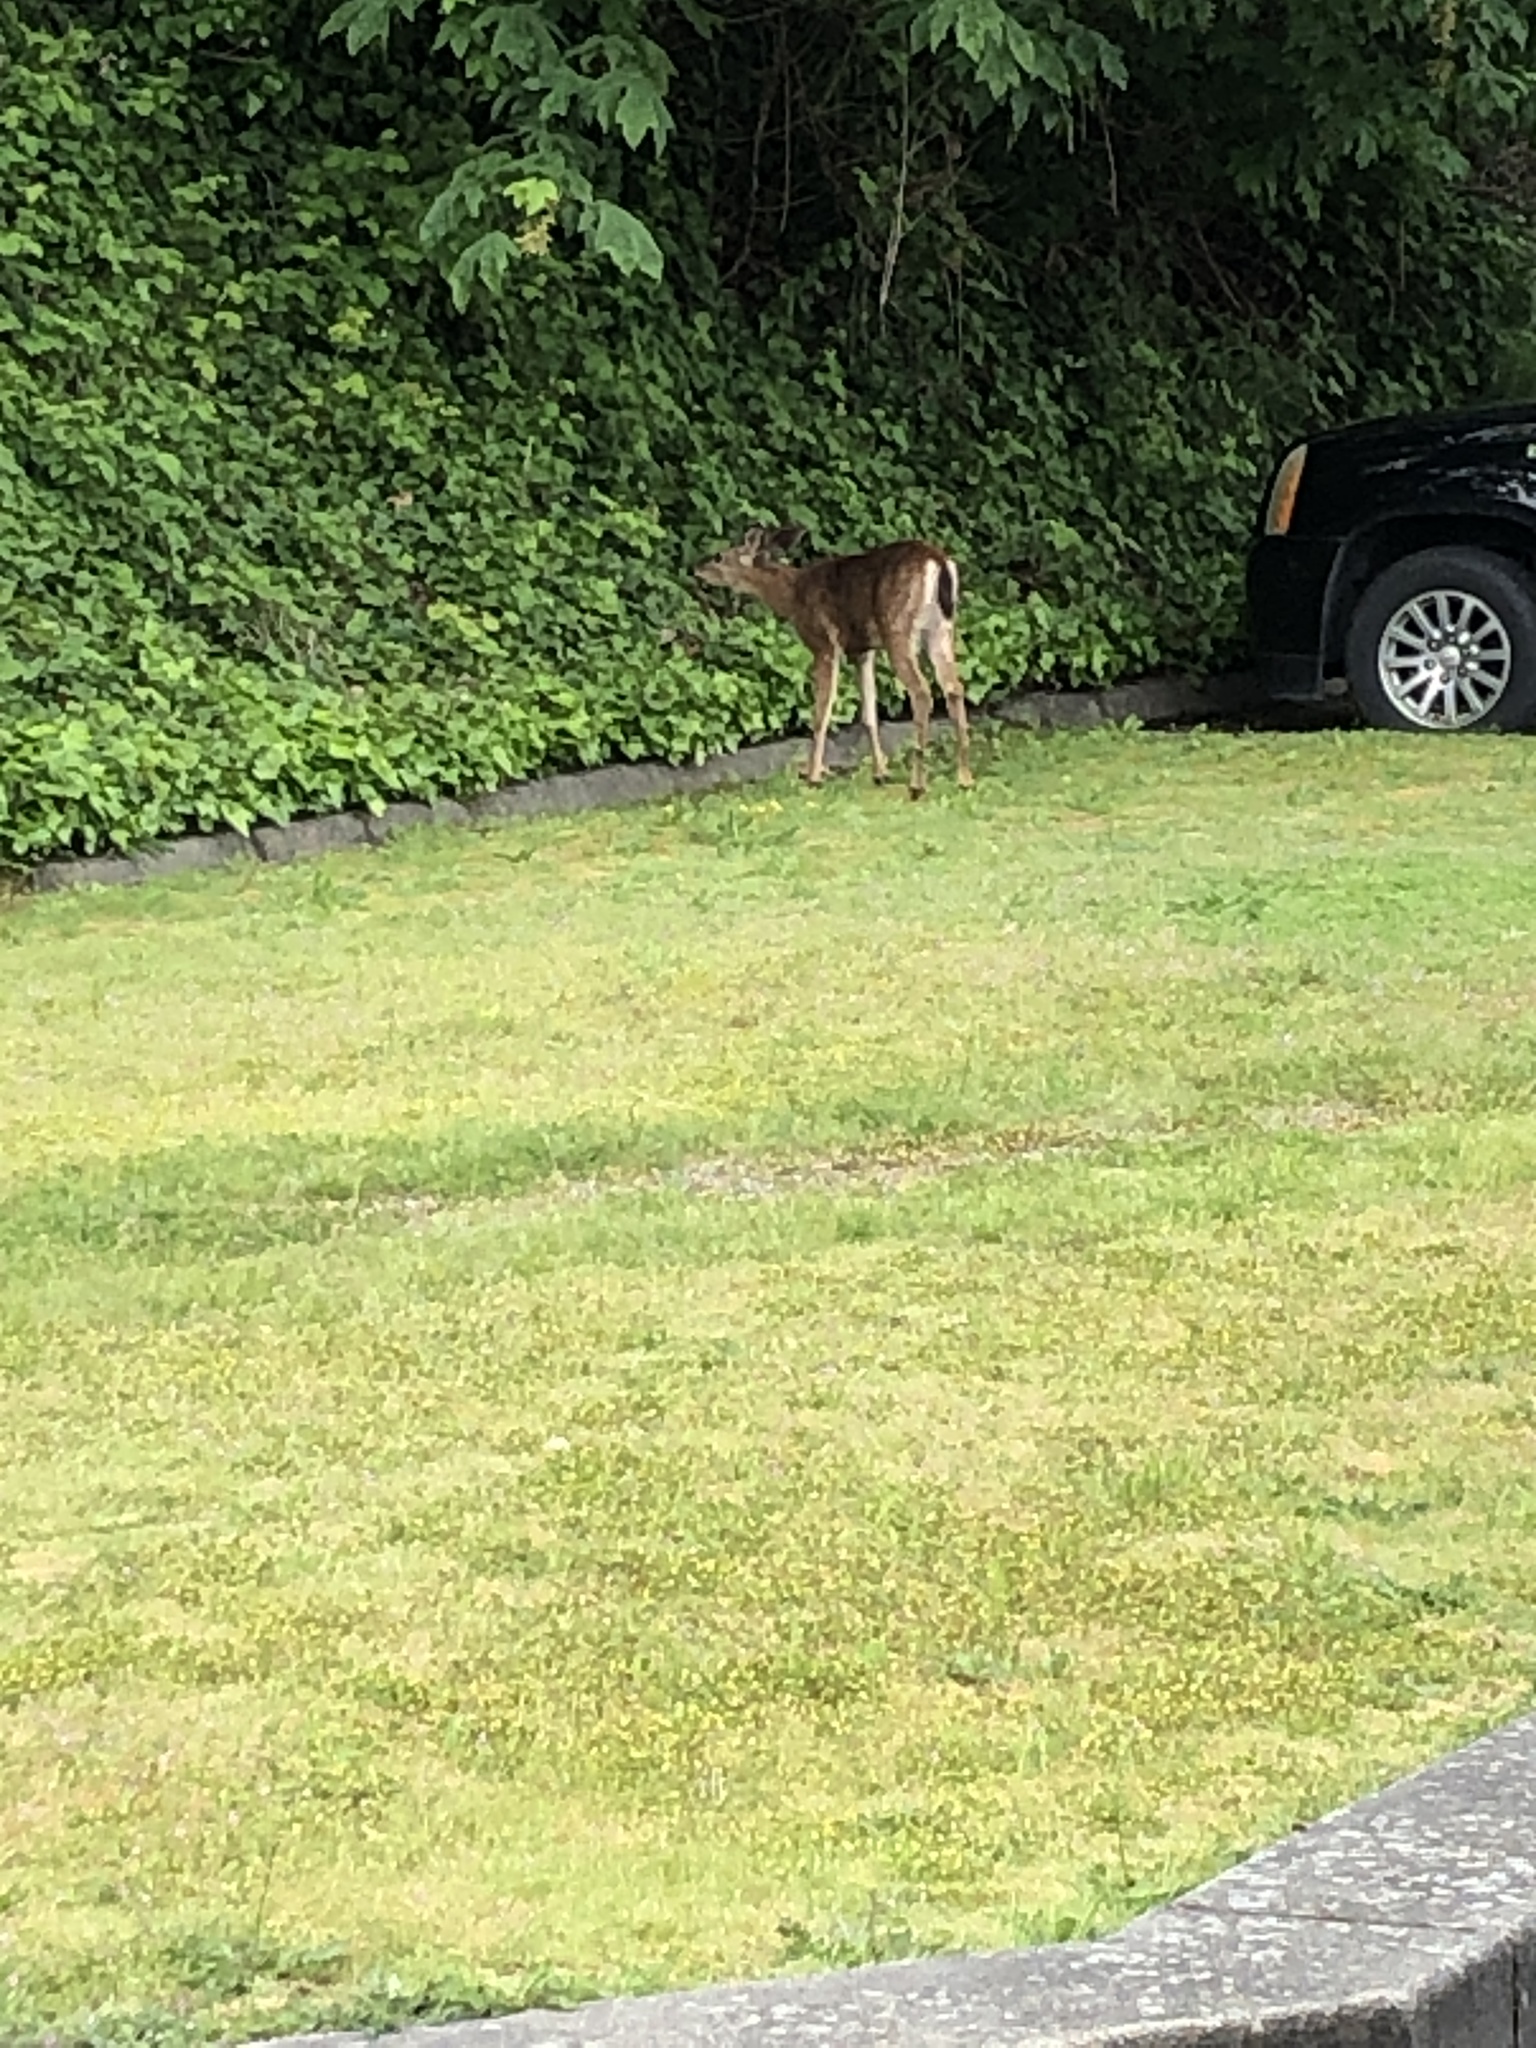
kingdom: Animalia
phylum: Chordata
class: Mammalia
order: Artiodactyla
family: Cervidae
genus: Odocoileus
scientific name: Odocoileus hemionus
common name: Mule deer
